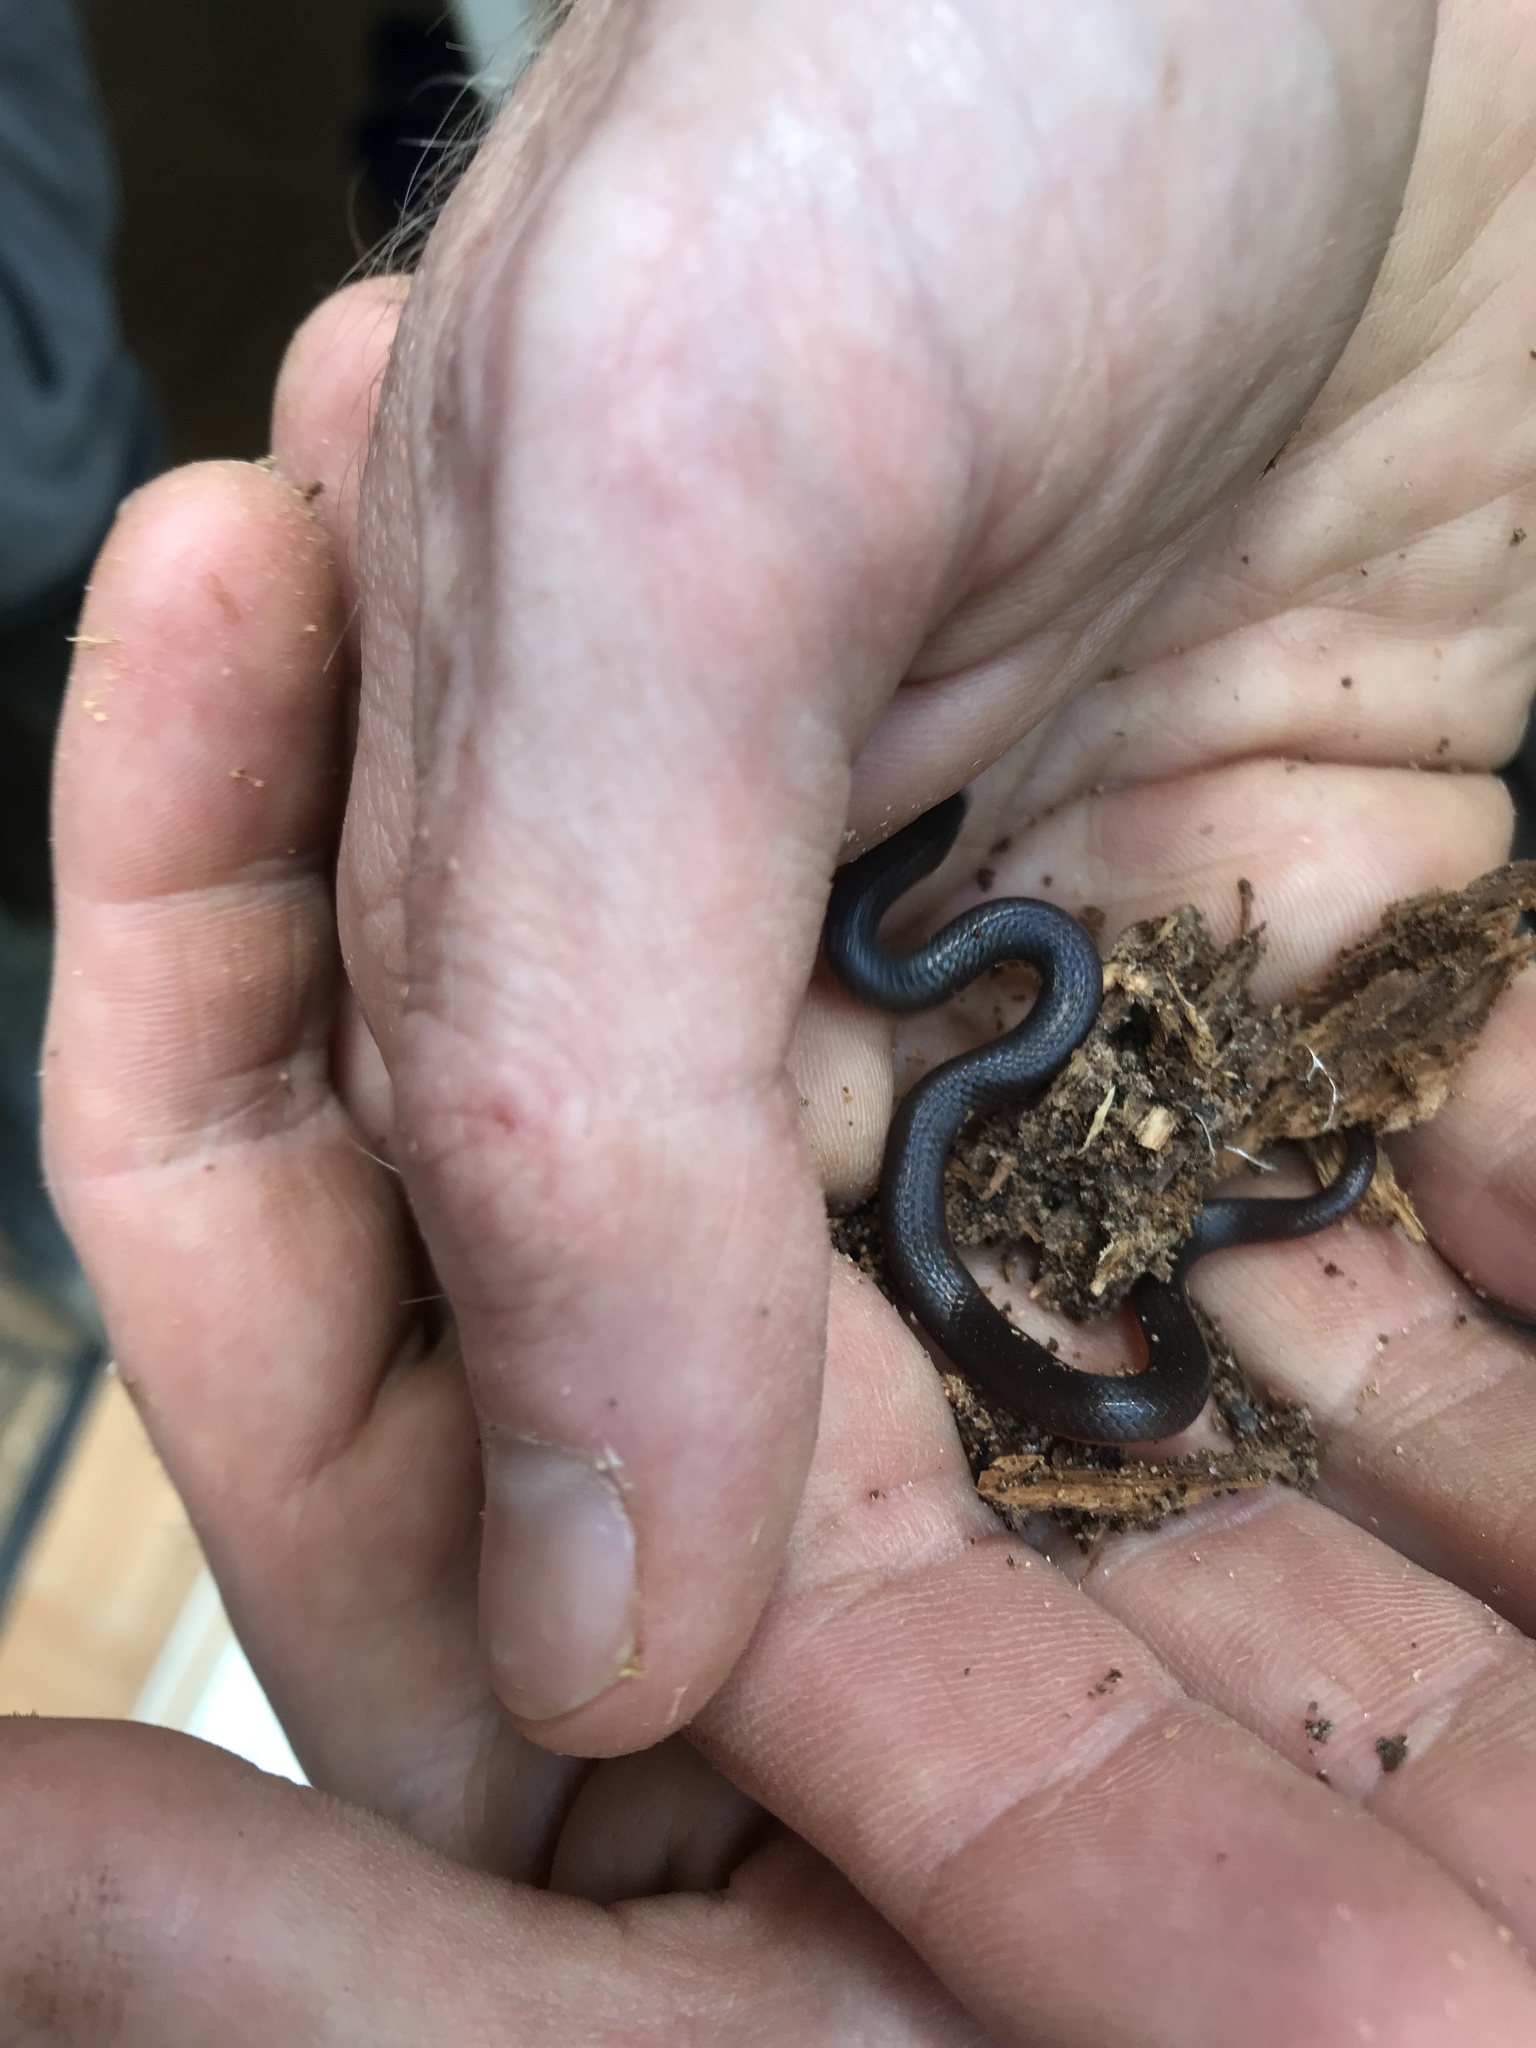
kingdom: Animalia
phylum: Chordata
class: Squamata
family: Colubridae
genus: Carphophis
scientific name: Carphophis amoenus
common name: Eastern worm snake
